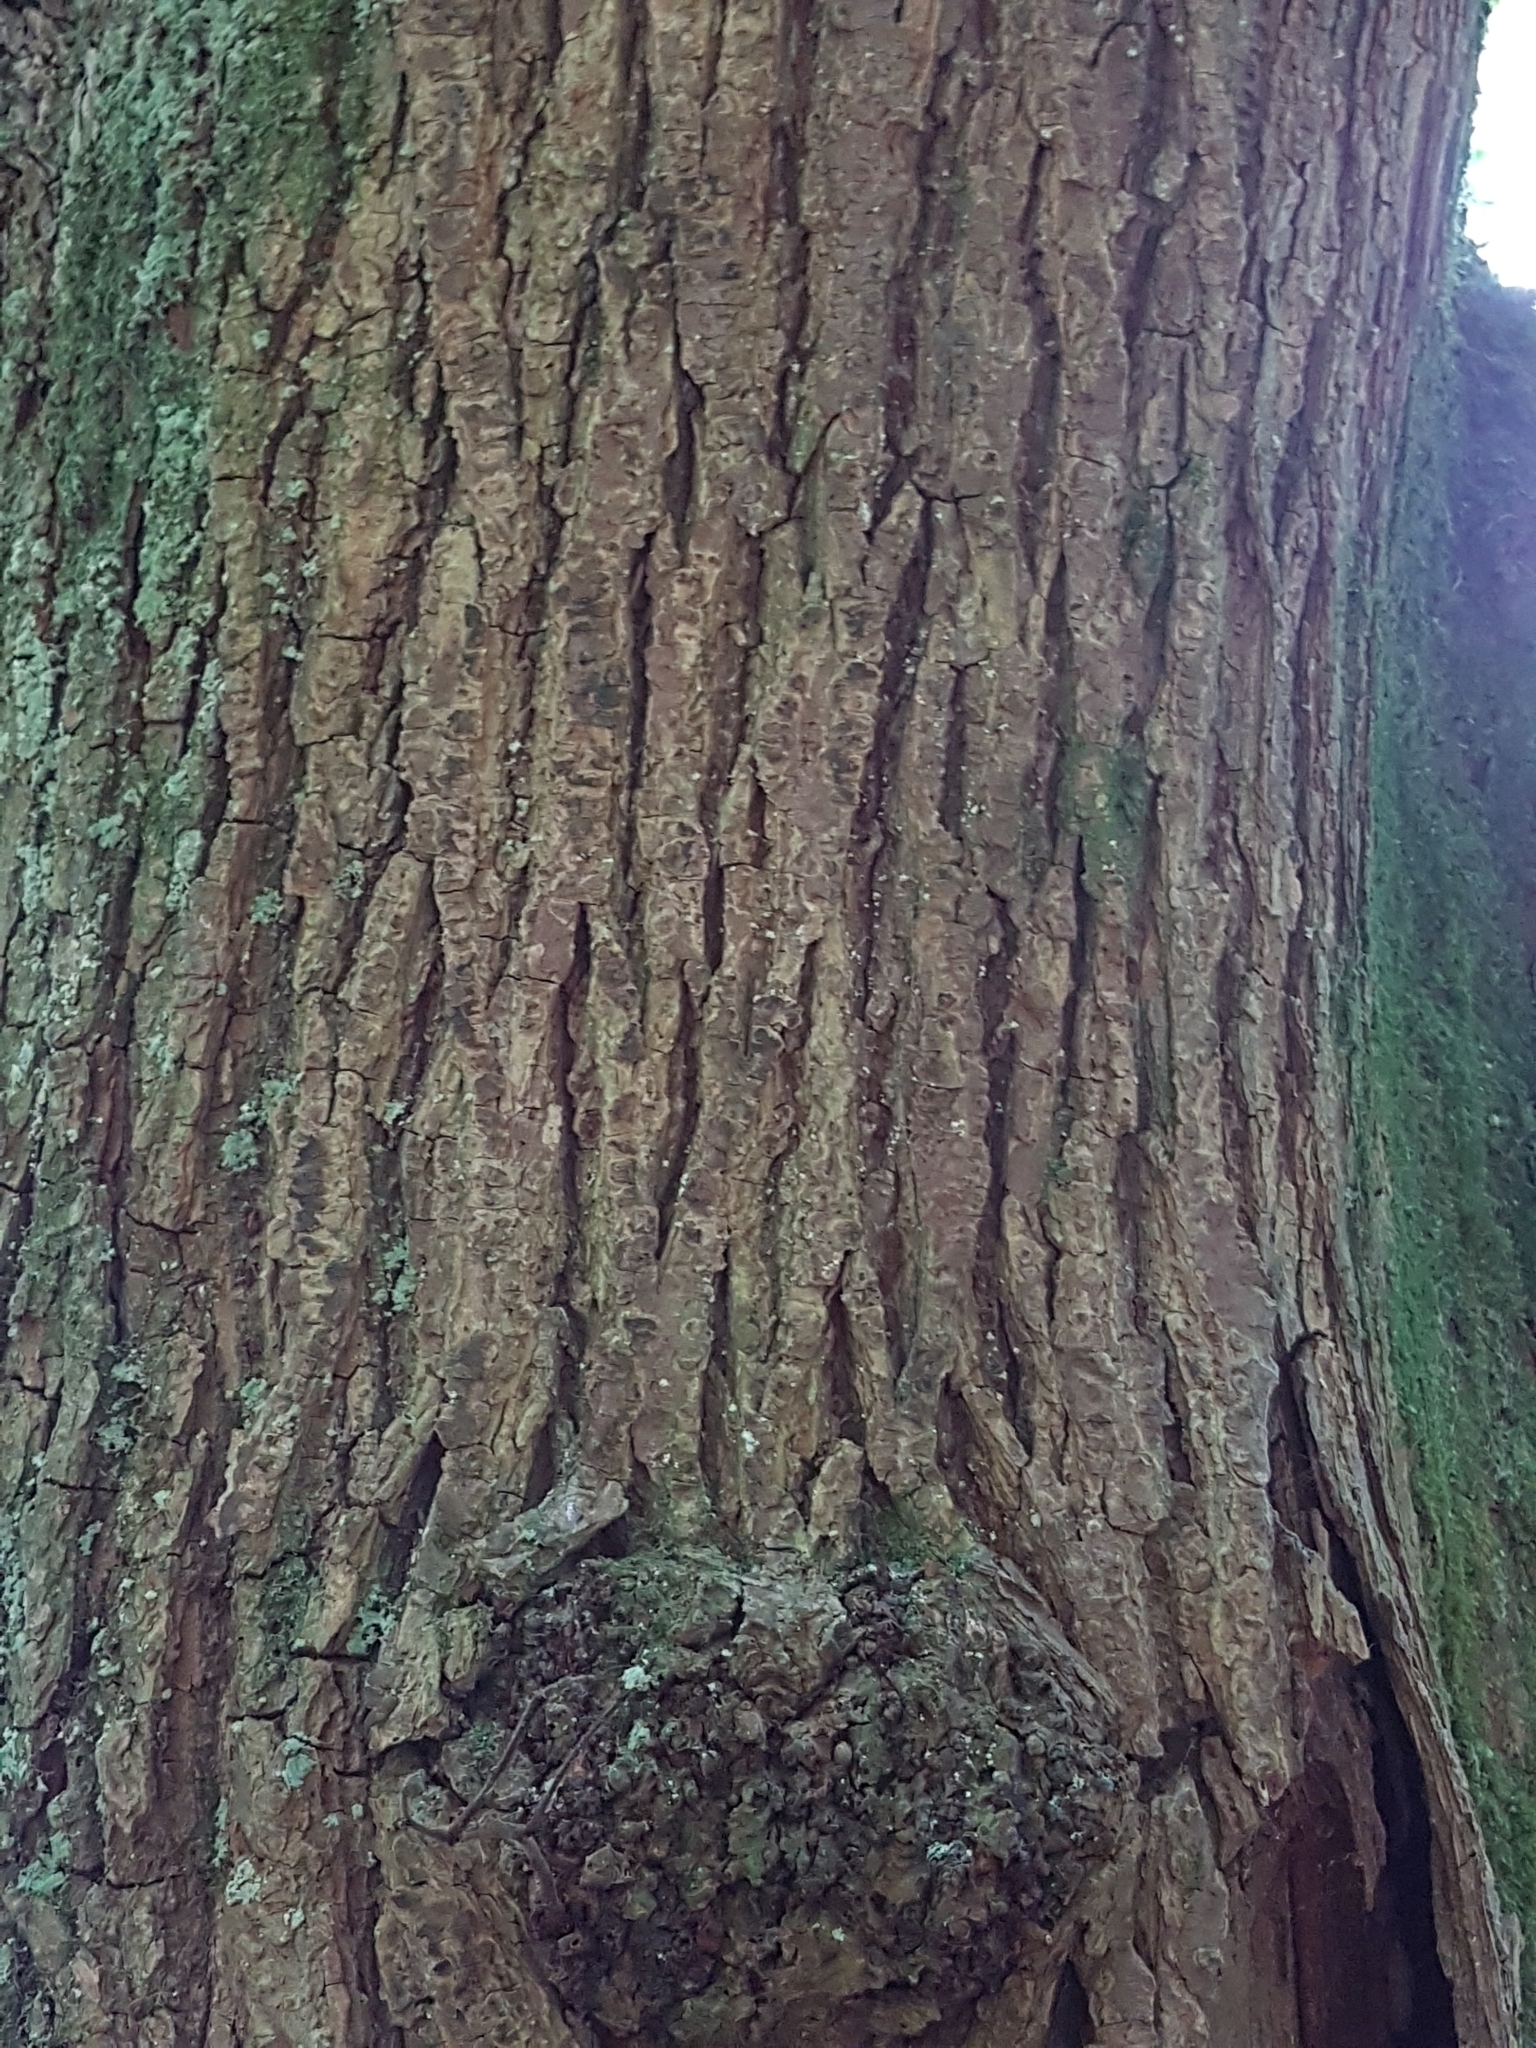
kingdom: Plantae
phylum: Tracheophyta
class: Magnoliopsida
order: Rosales
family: Ulmaceae
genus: Ulmus
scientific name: Ulmus glabra
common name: Wych elm
